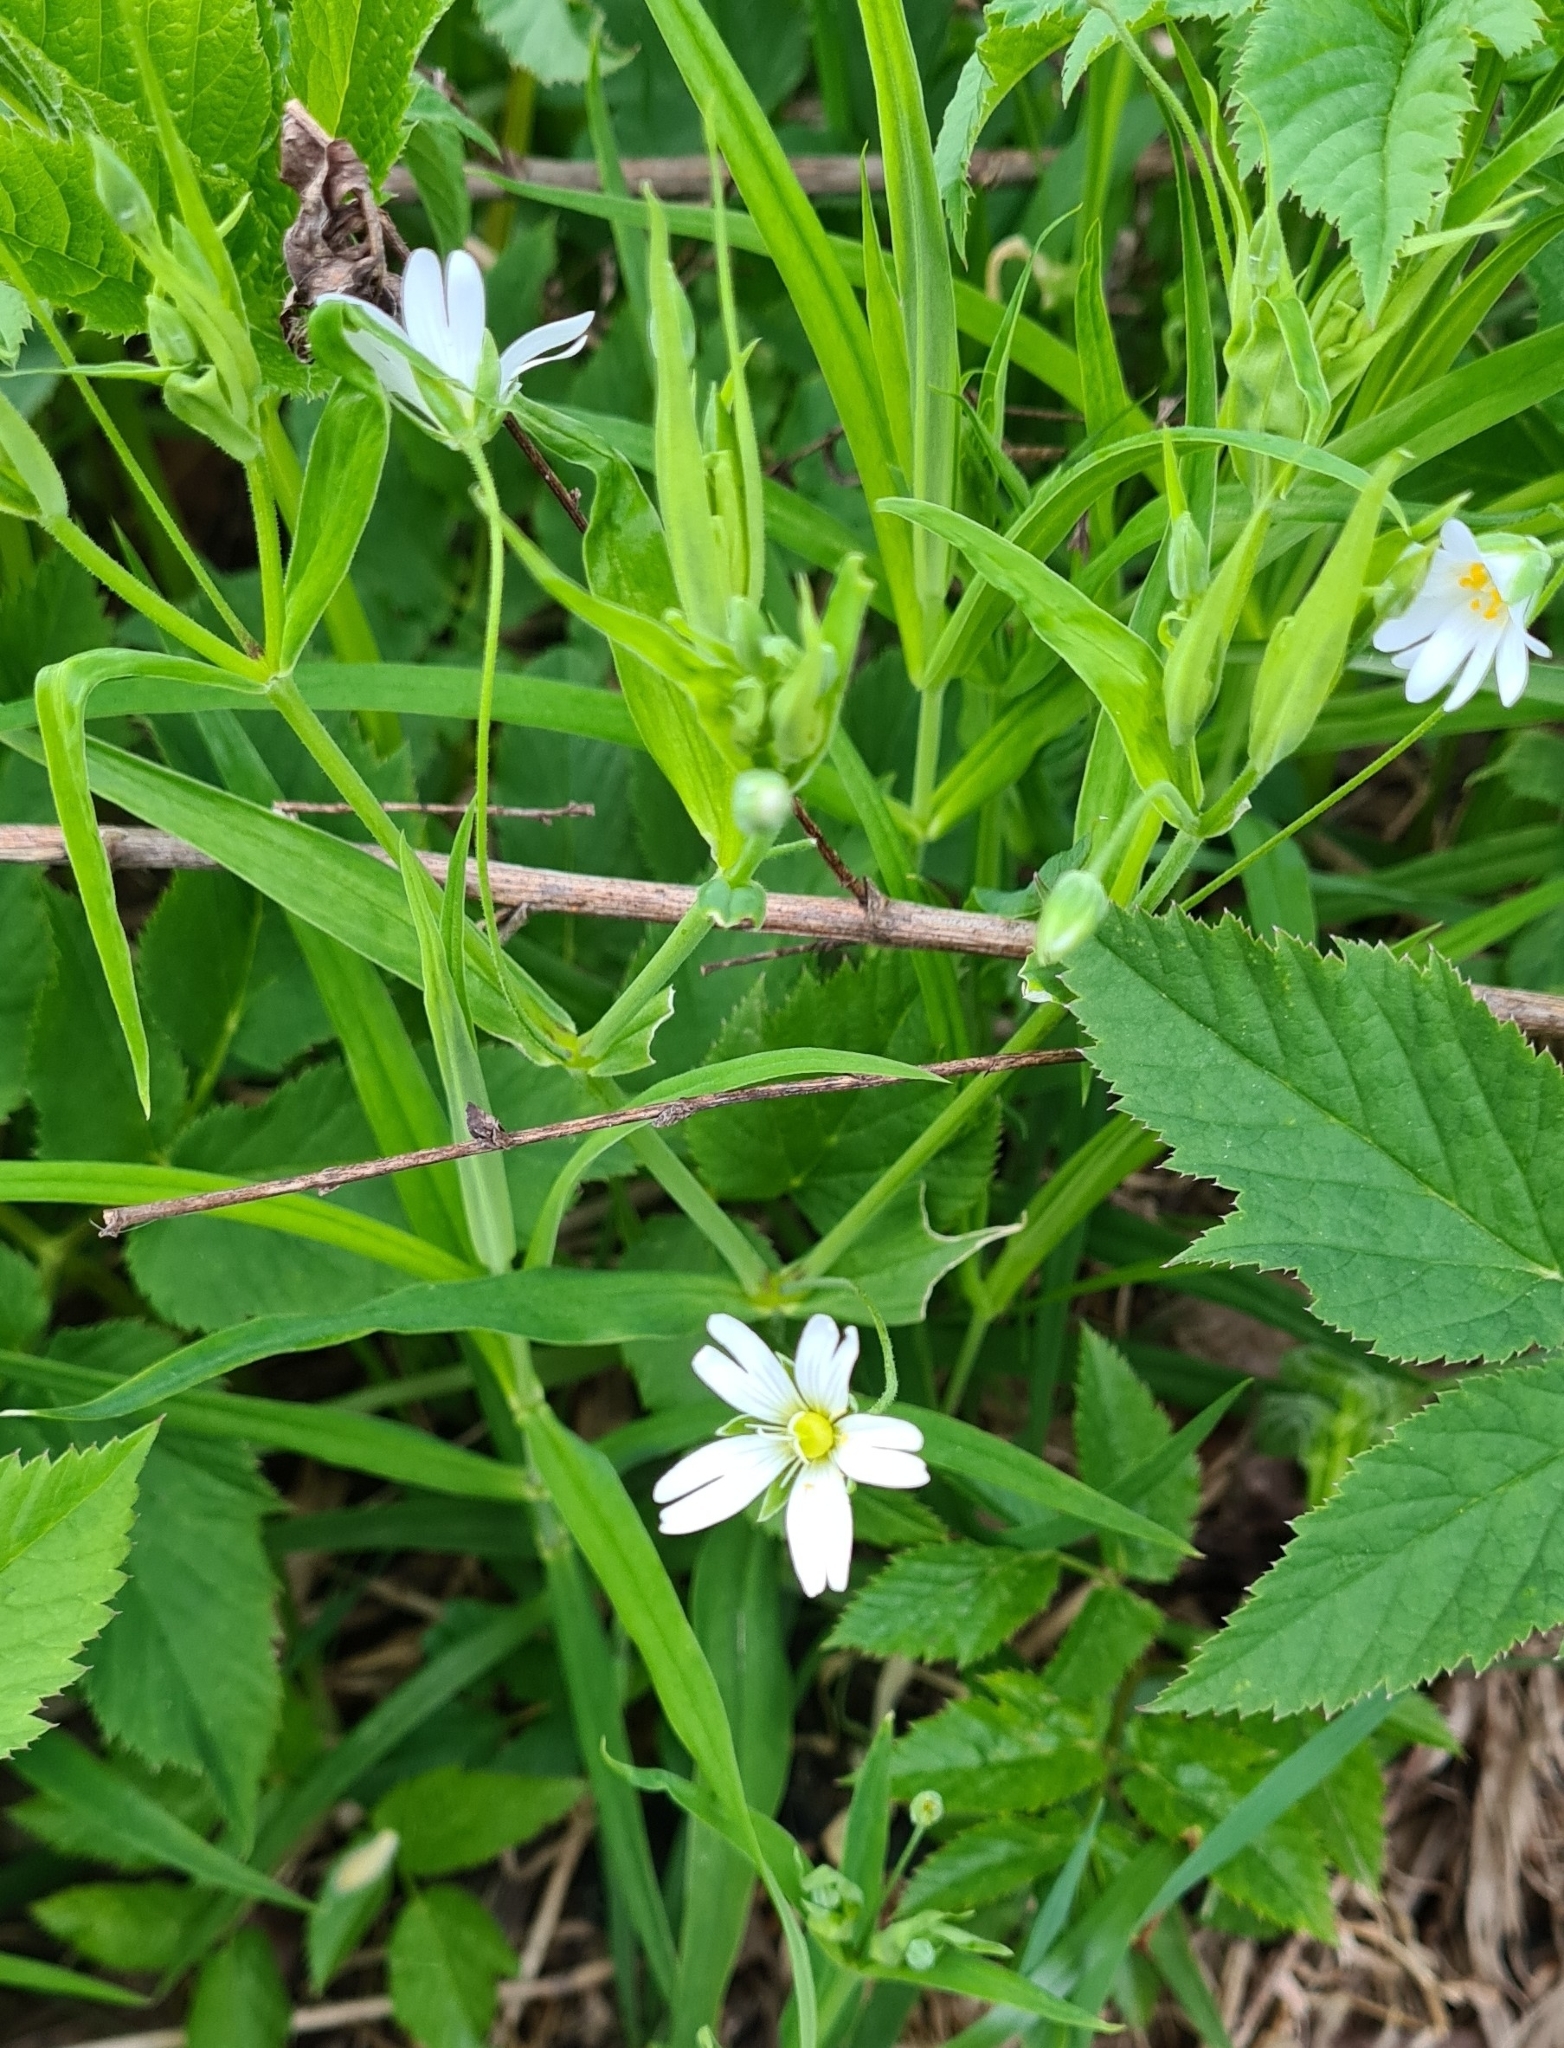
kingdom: Plantae
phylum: Tracheophyta
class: Magnoliopsida
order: Caryophyllales
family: Caryophyllaceae
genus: Rabelera
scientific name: Rabelera holostea
